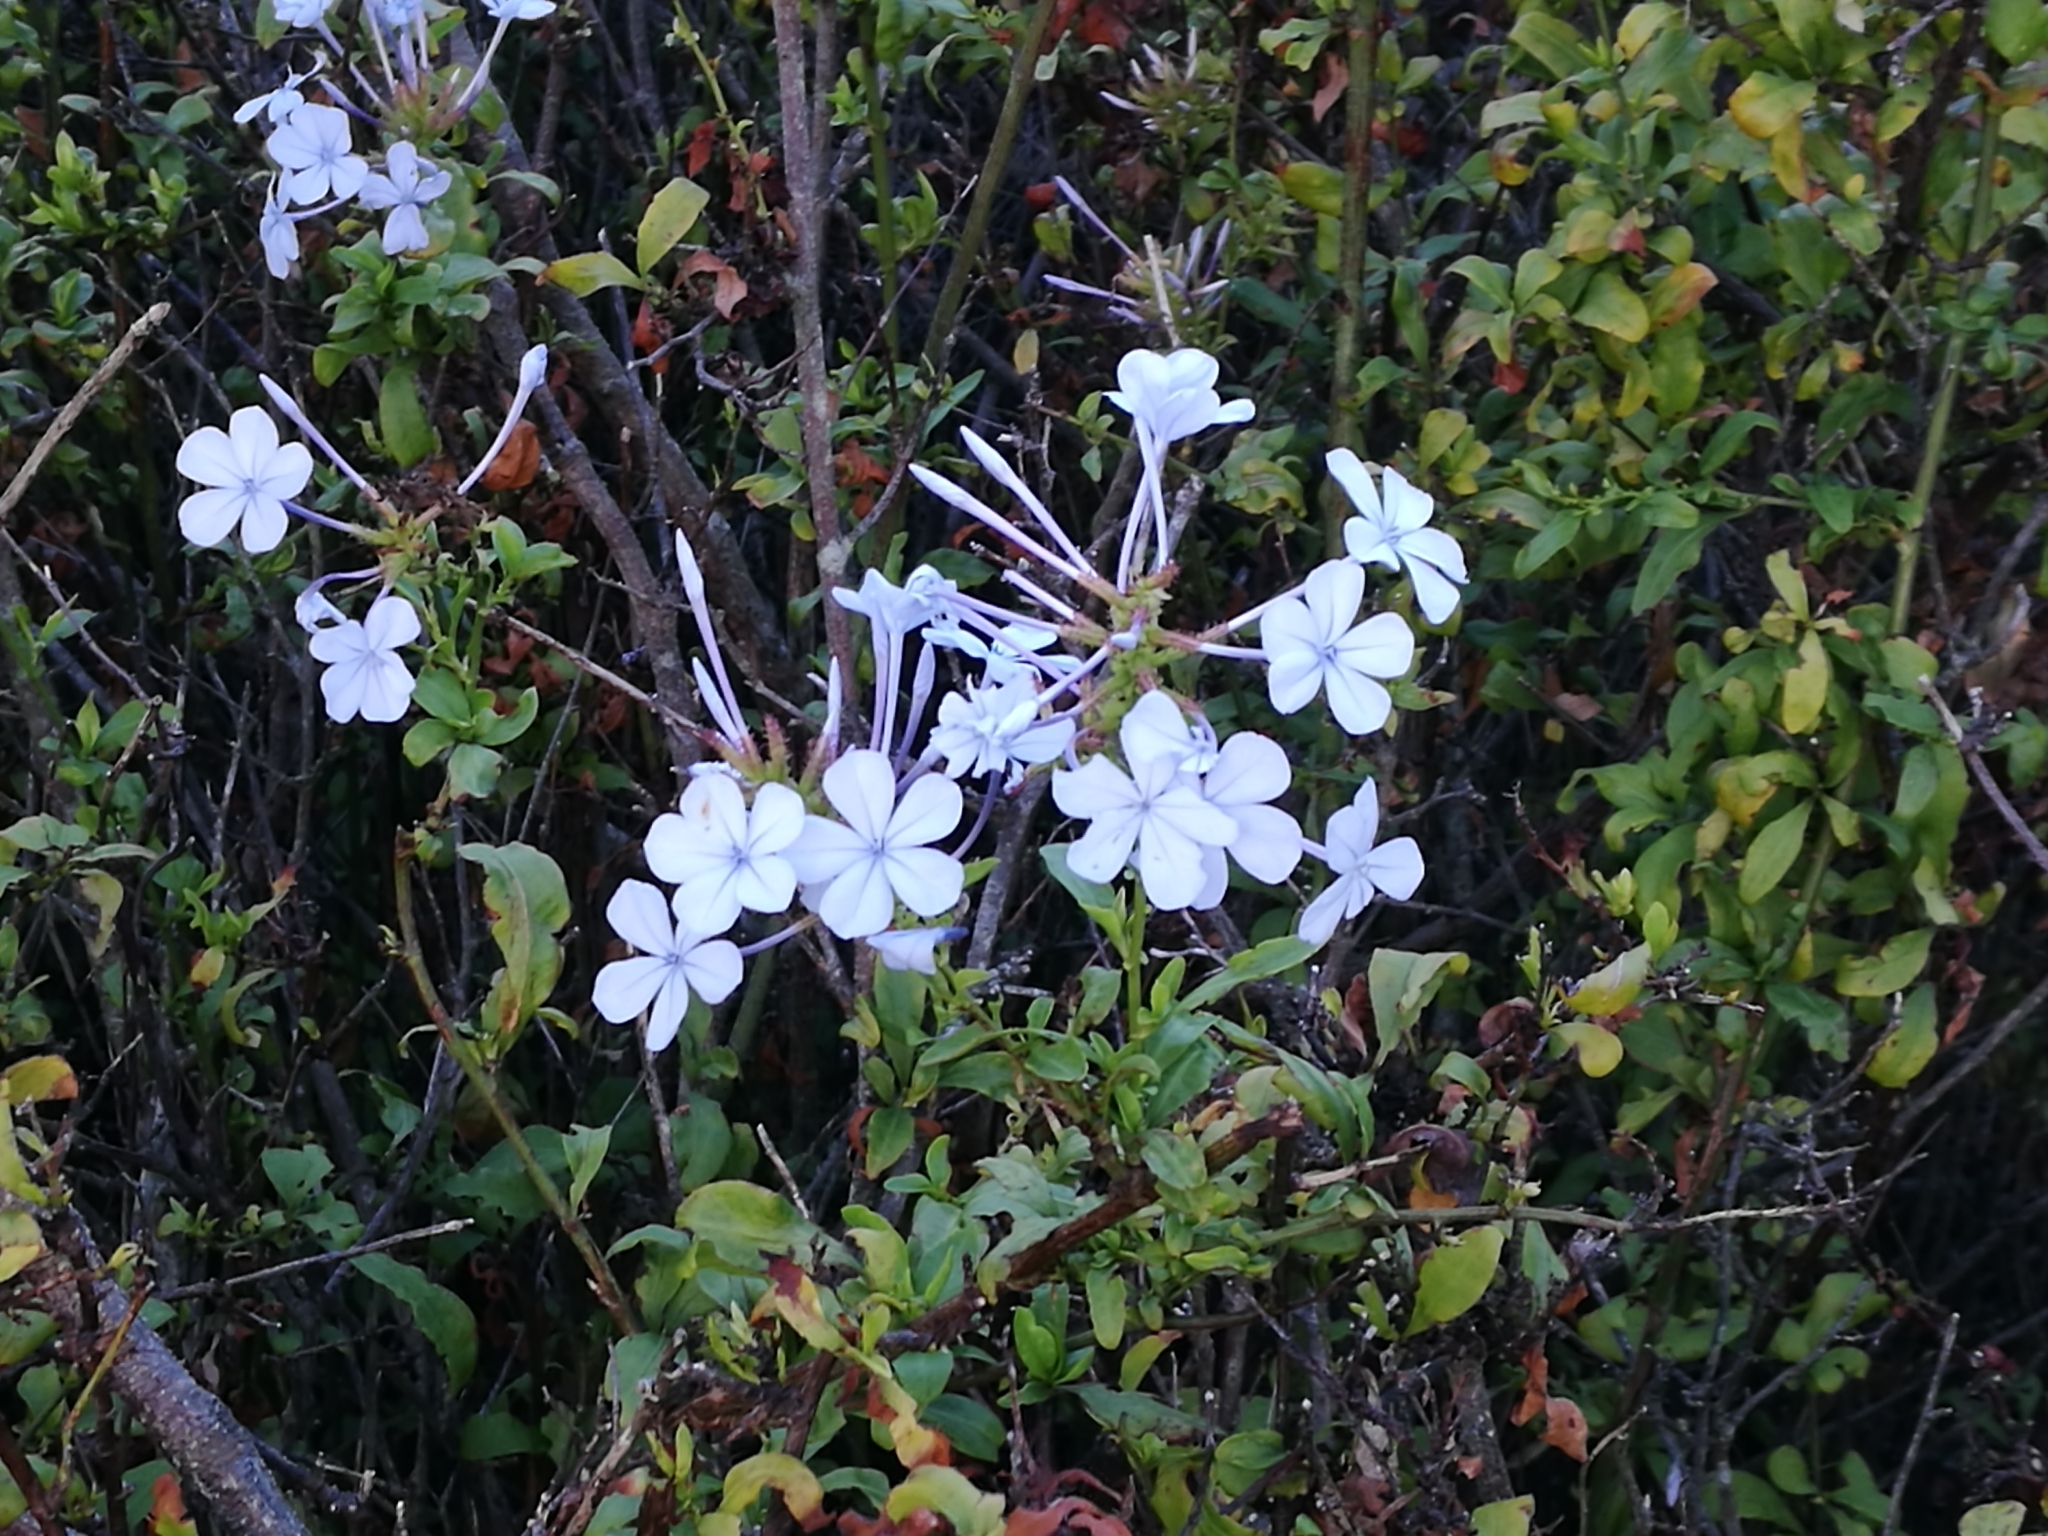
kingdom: Plantae
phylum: Tracheophyta
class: Magnoliopsida
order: Caryophyllales
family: Plumbaginaceae
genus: Plumbago
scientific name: Plumbago auriculata
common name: Cape leadwort
